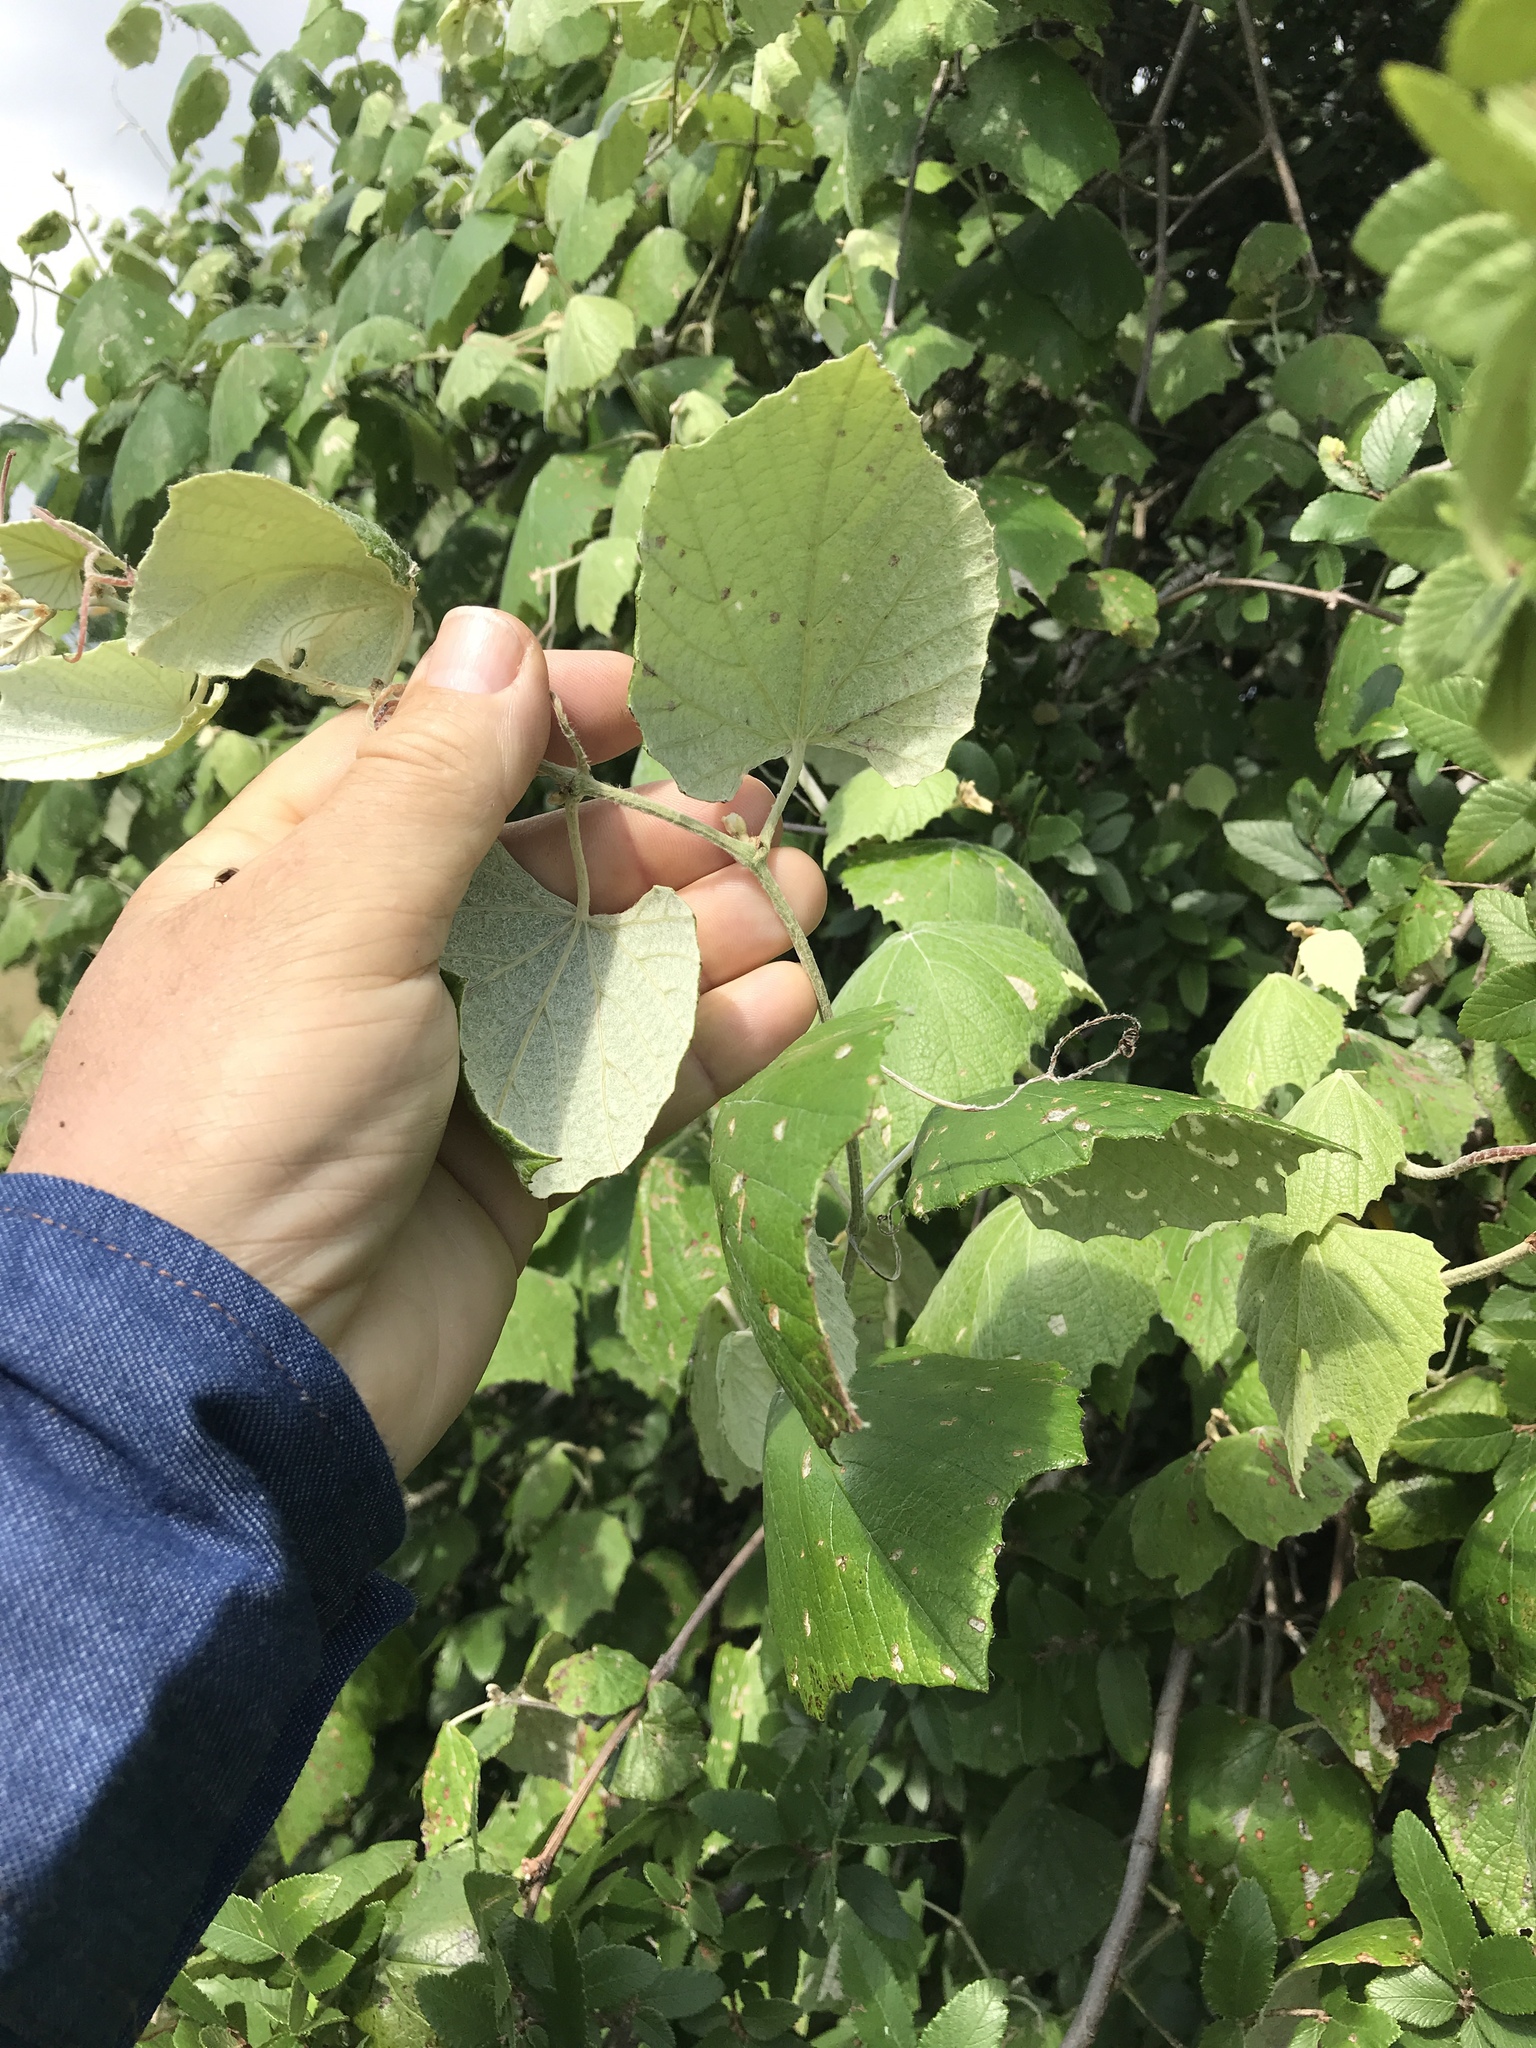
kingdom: Plantae
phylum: Tracheophyta
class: Magnoliopsida
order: Vitales
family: Vitaceae
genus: Vitis
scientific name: Vitis mustangensis
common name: Mustang grape
